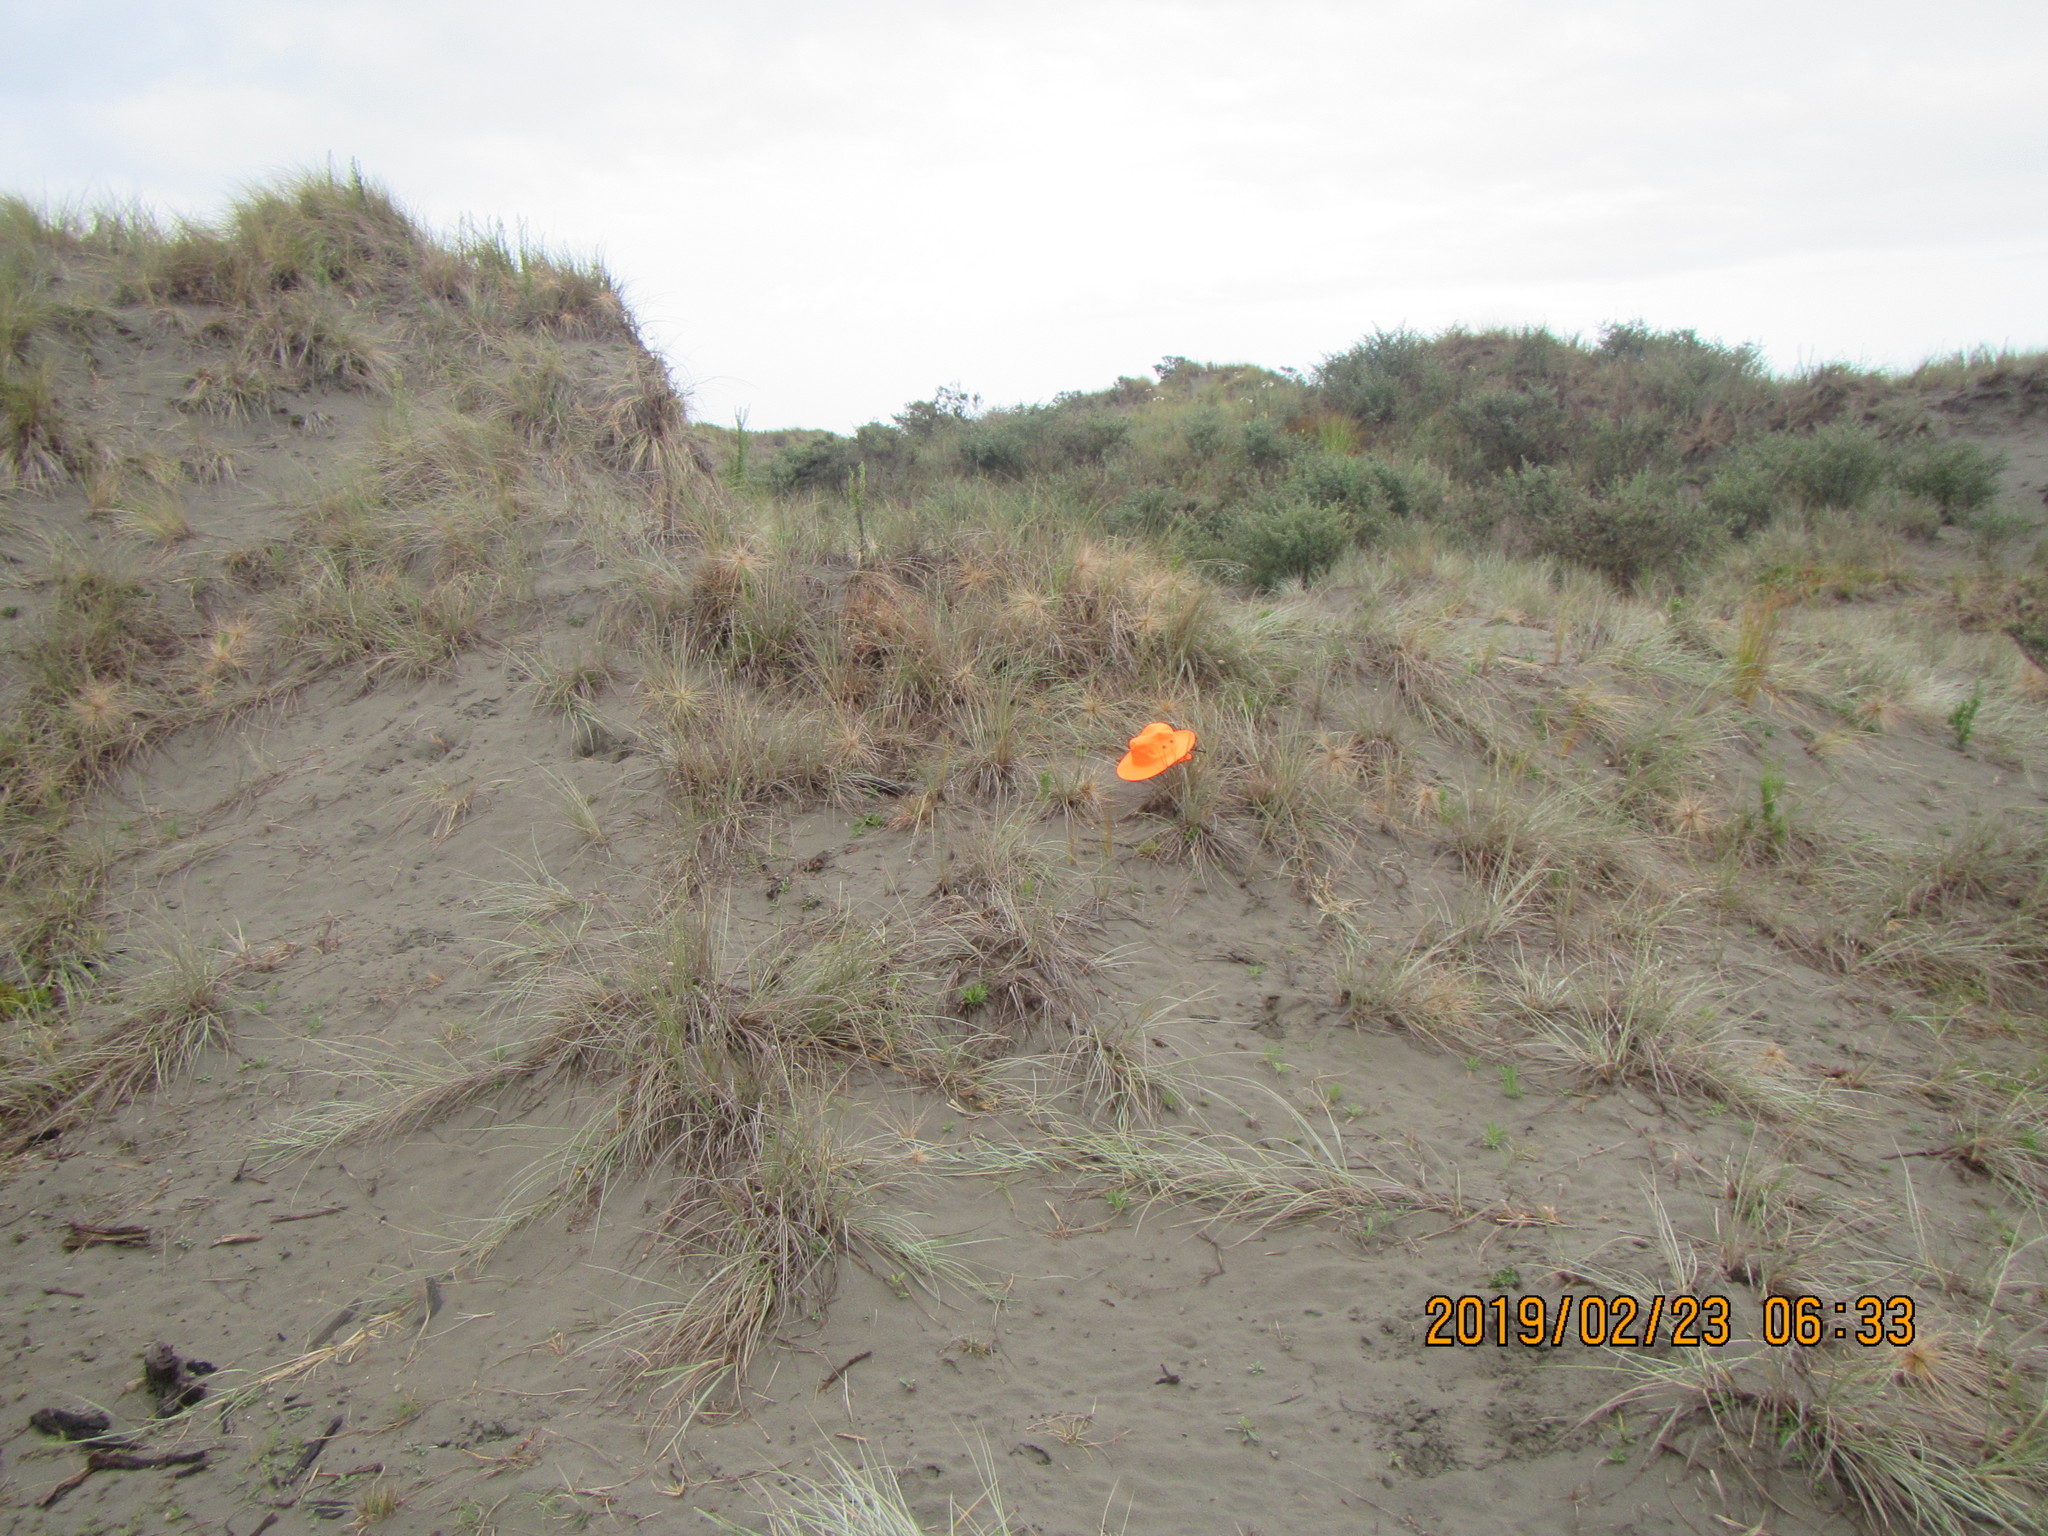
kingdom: Plantae
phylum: Tracheophyta
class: Liliopsida
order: Poales
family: Poaceae
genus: Spinifex
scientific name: Spinifex sericeus
